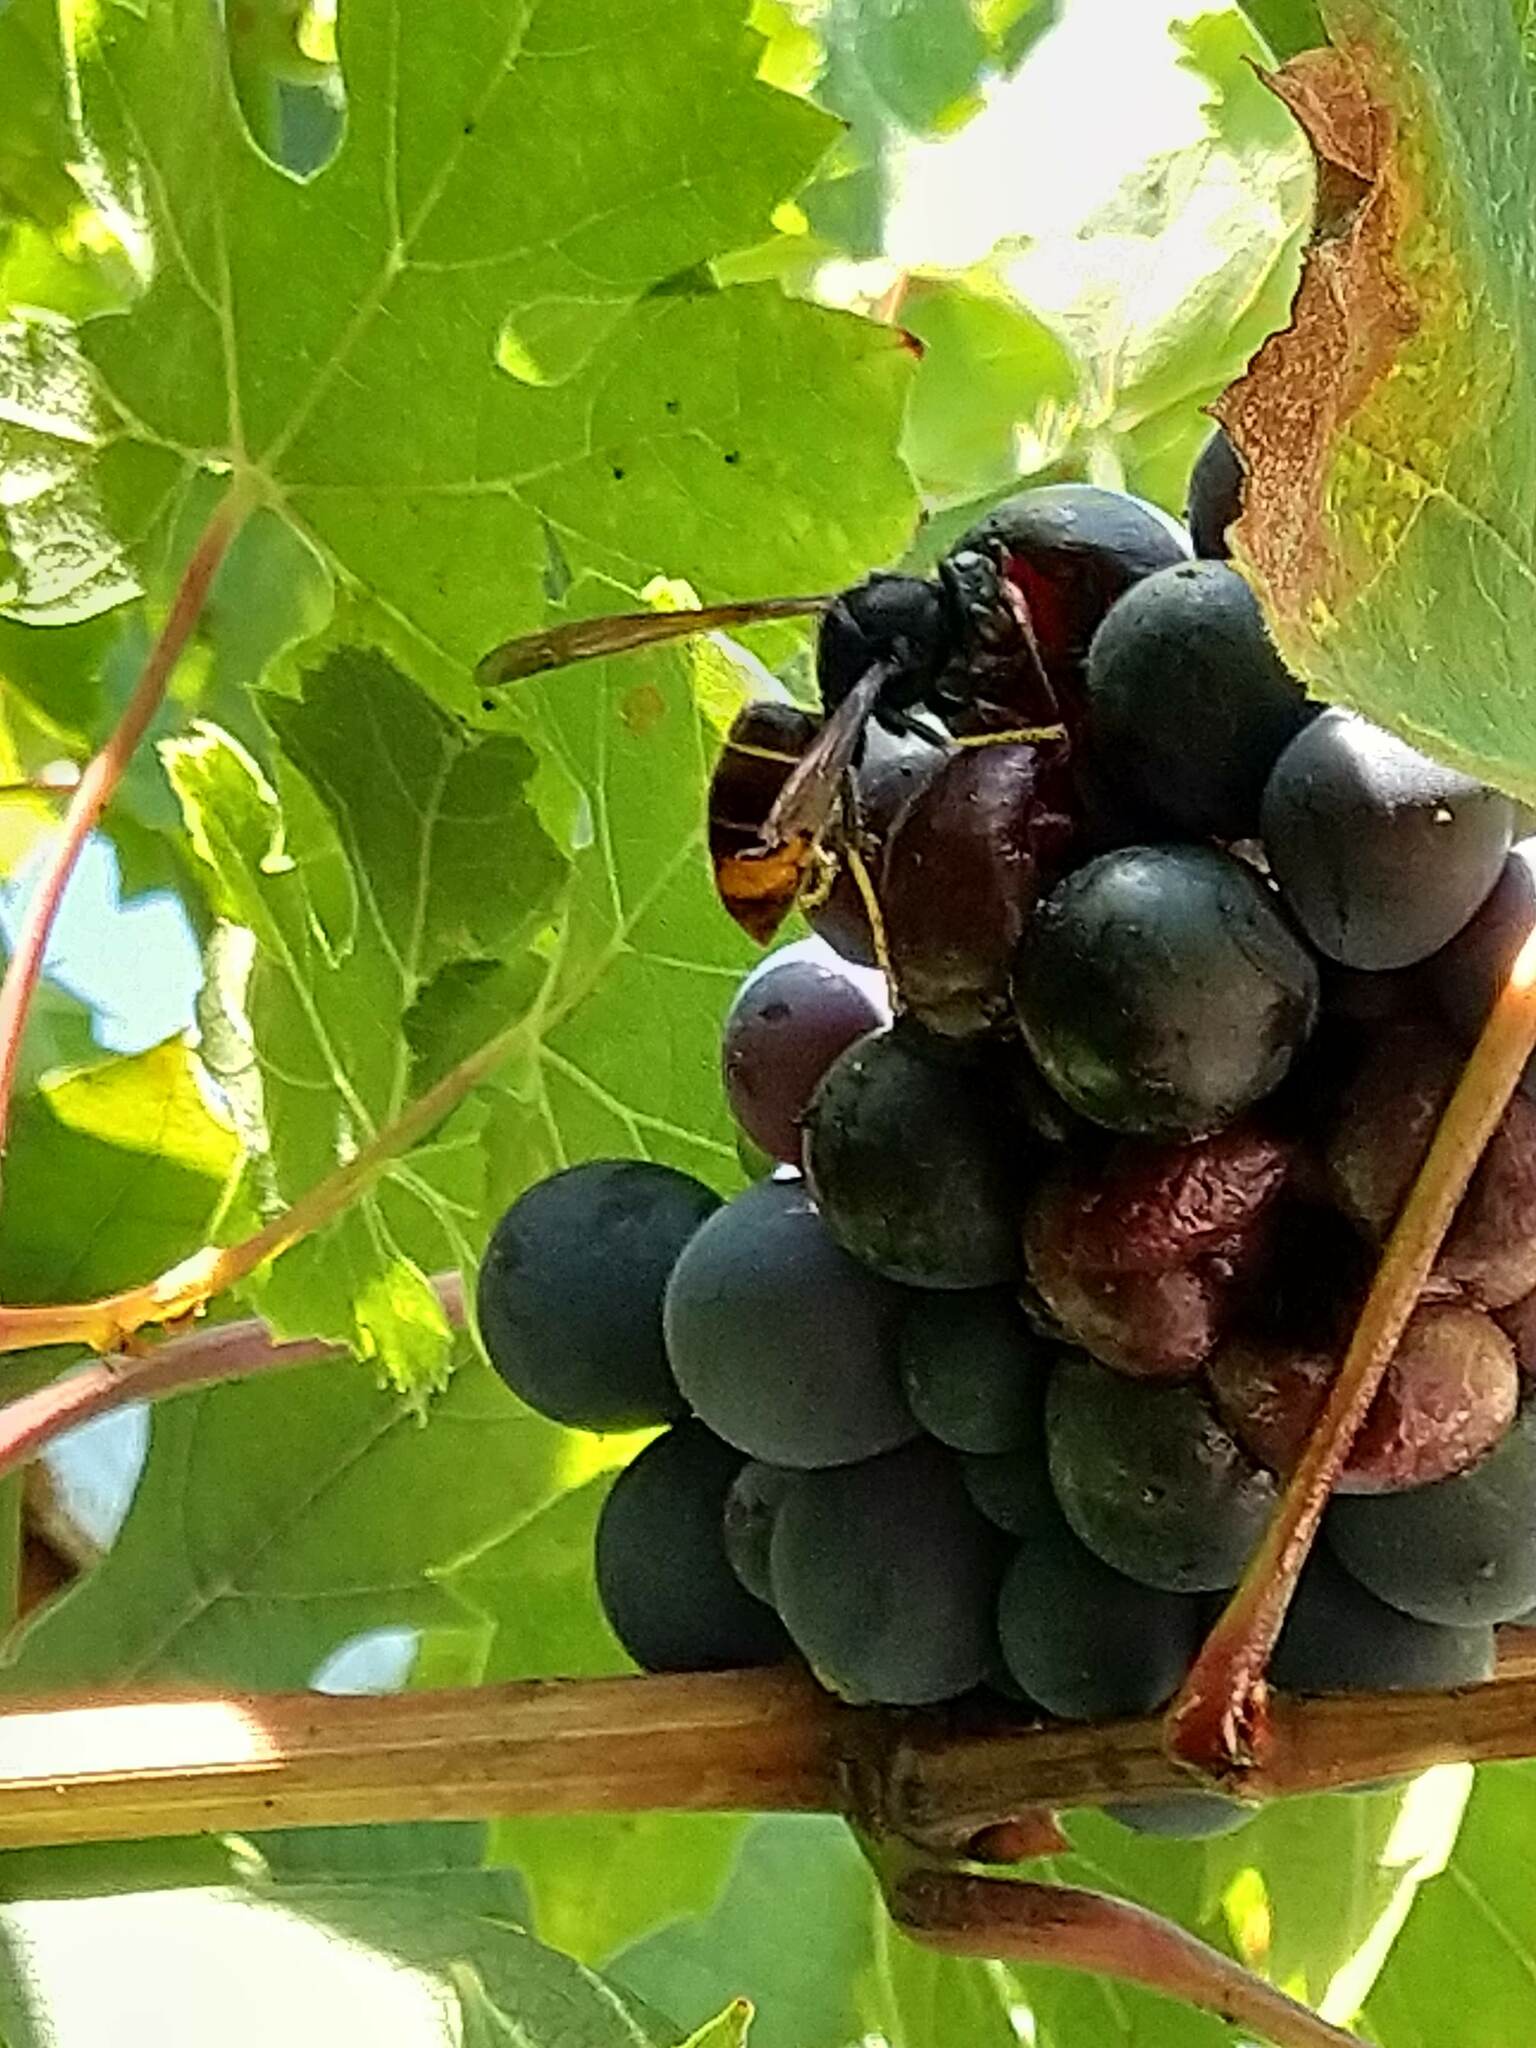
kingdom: Animalia
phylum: Arthropoda
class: Insecta
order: Hymenoptera
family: Vespidae
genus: Vespa
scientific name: Vespa velutina
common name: Asian hornet
